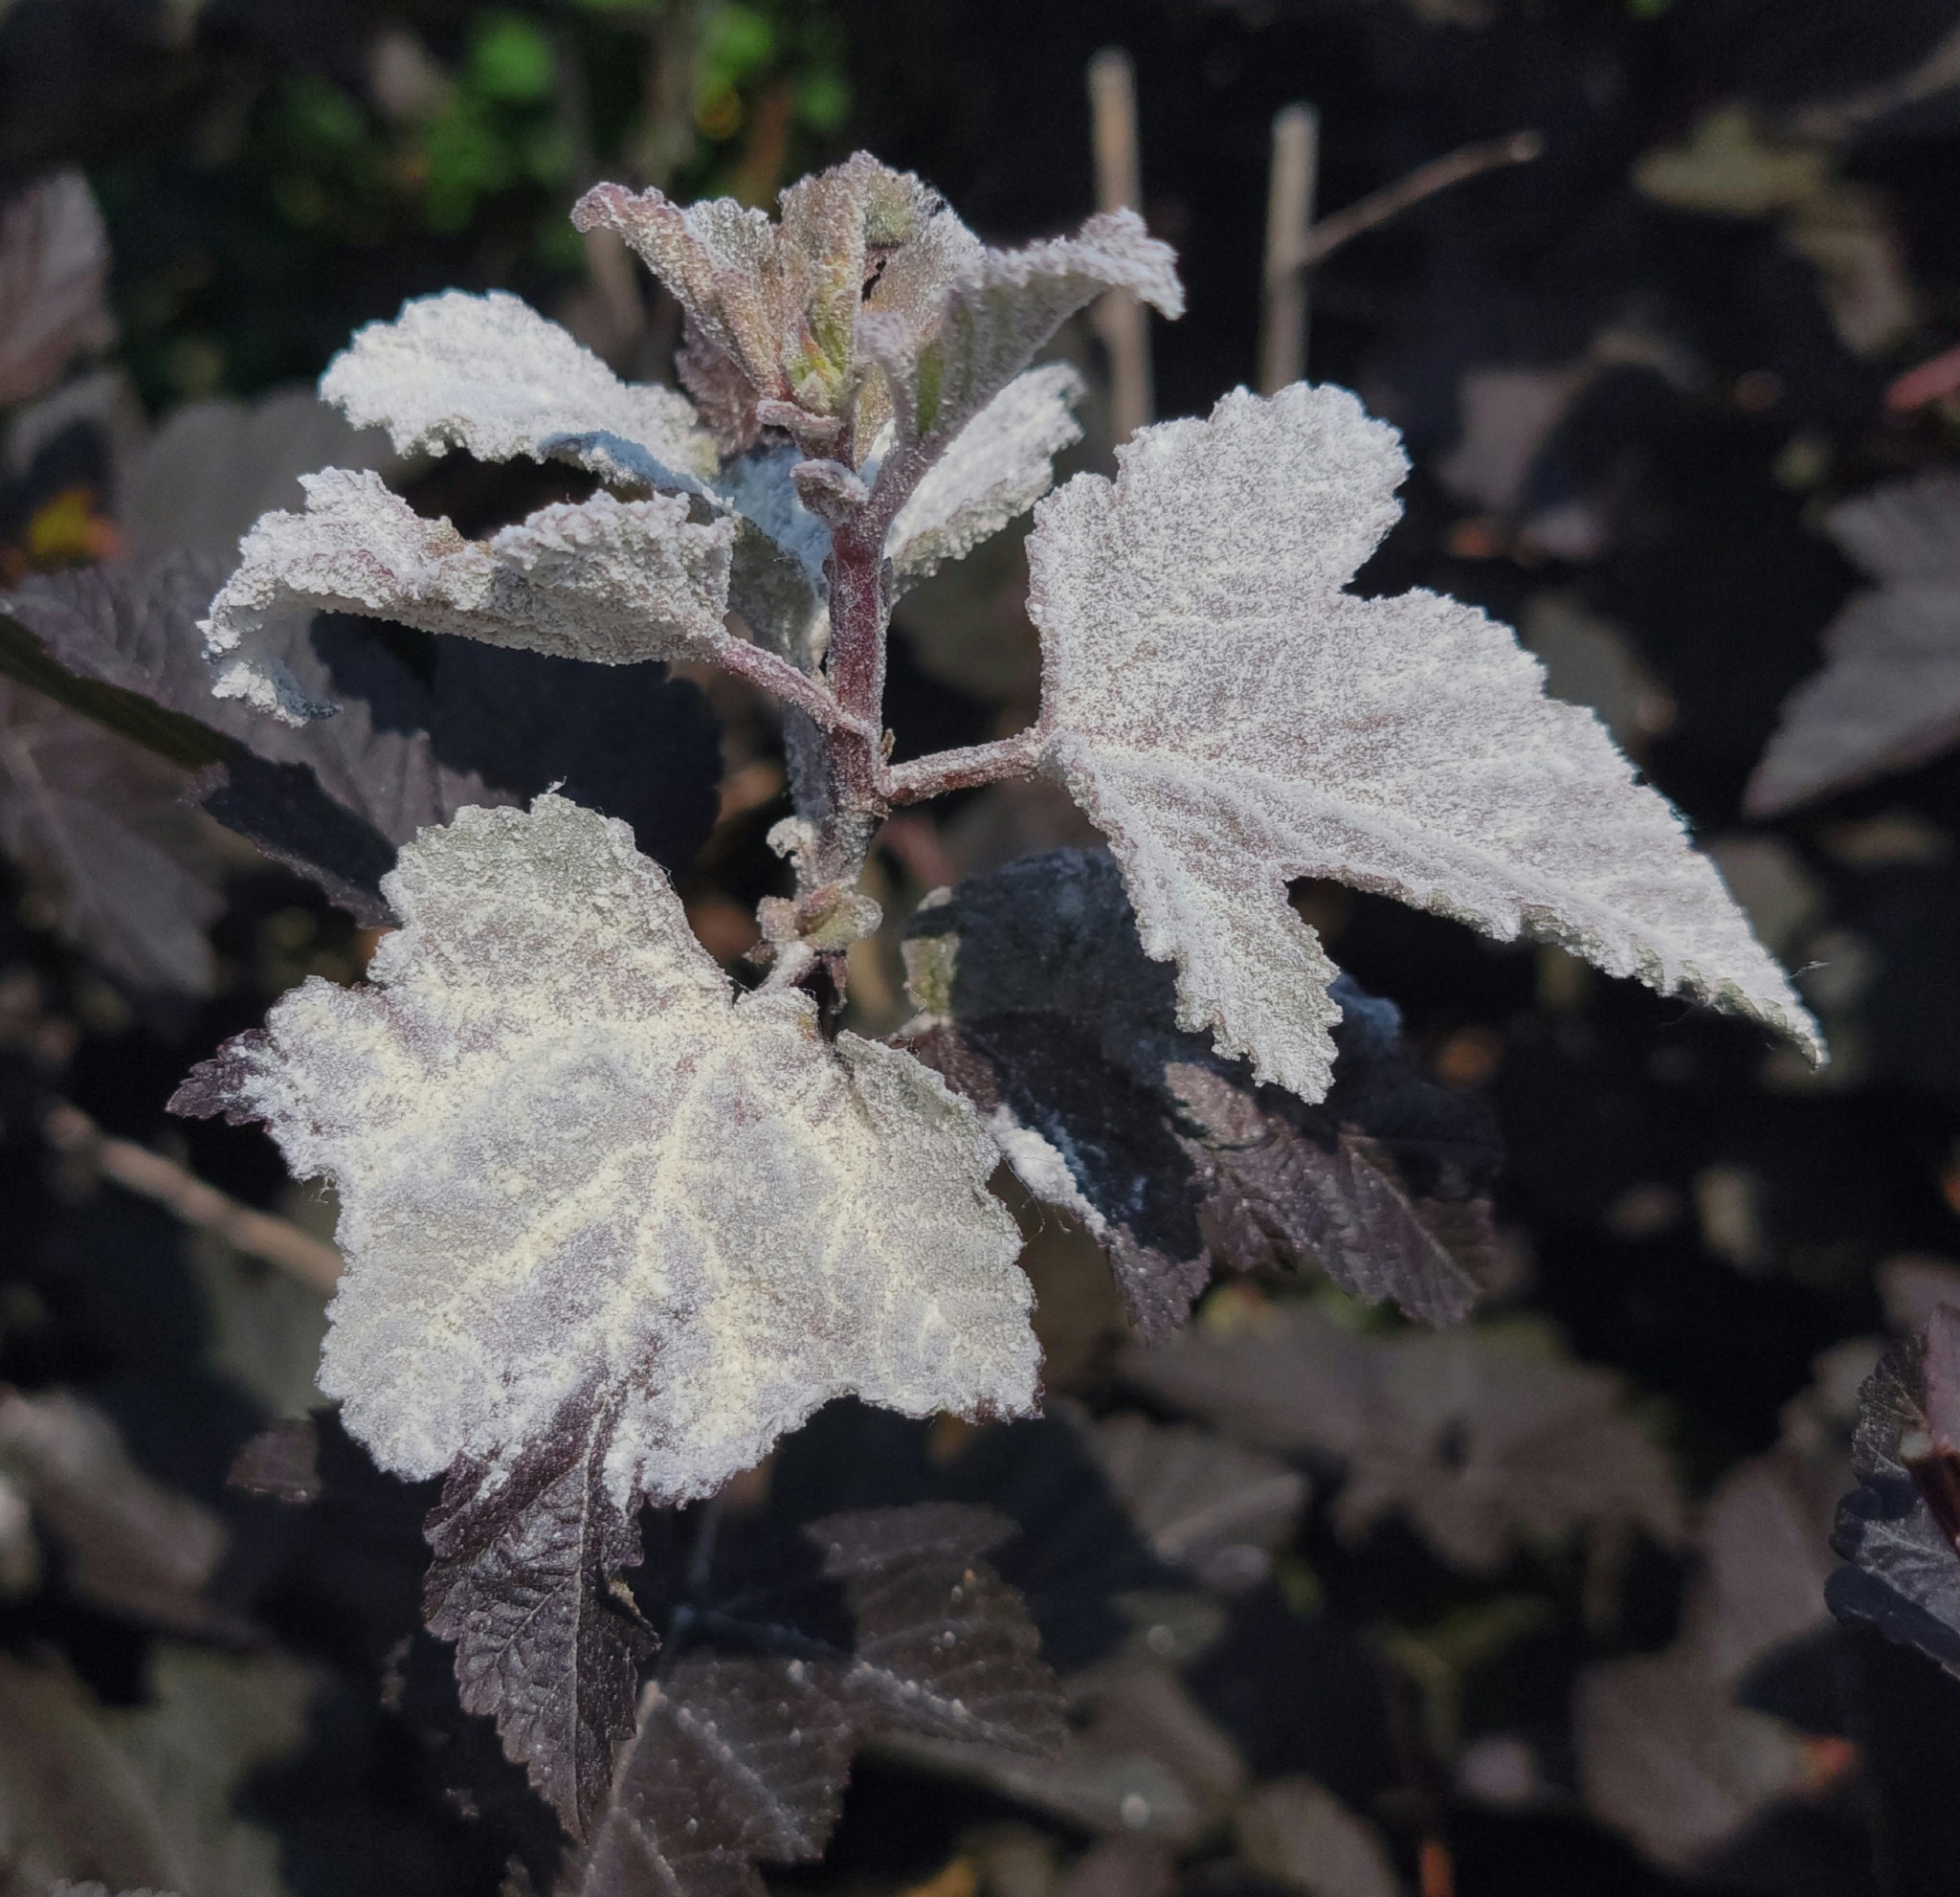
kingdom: Fungi
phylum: Ascomycota
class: Leotiomycetes
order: Helotiales
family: Erysiphaceae
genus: Podosphaera
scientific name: Podosphaera physocarpi
